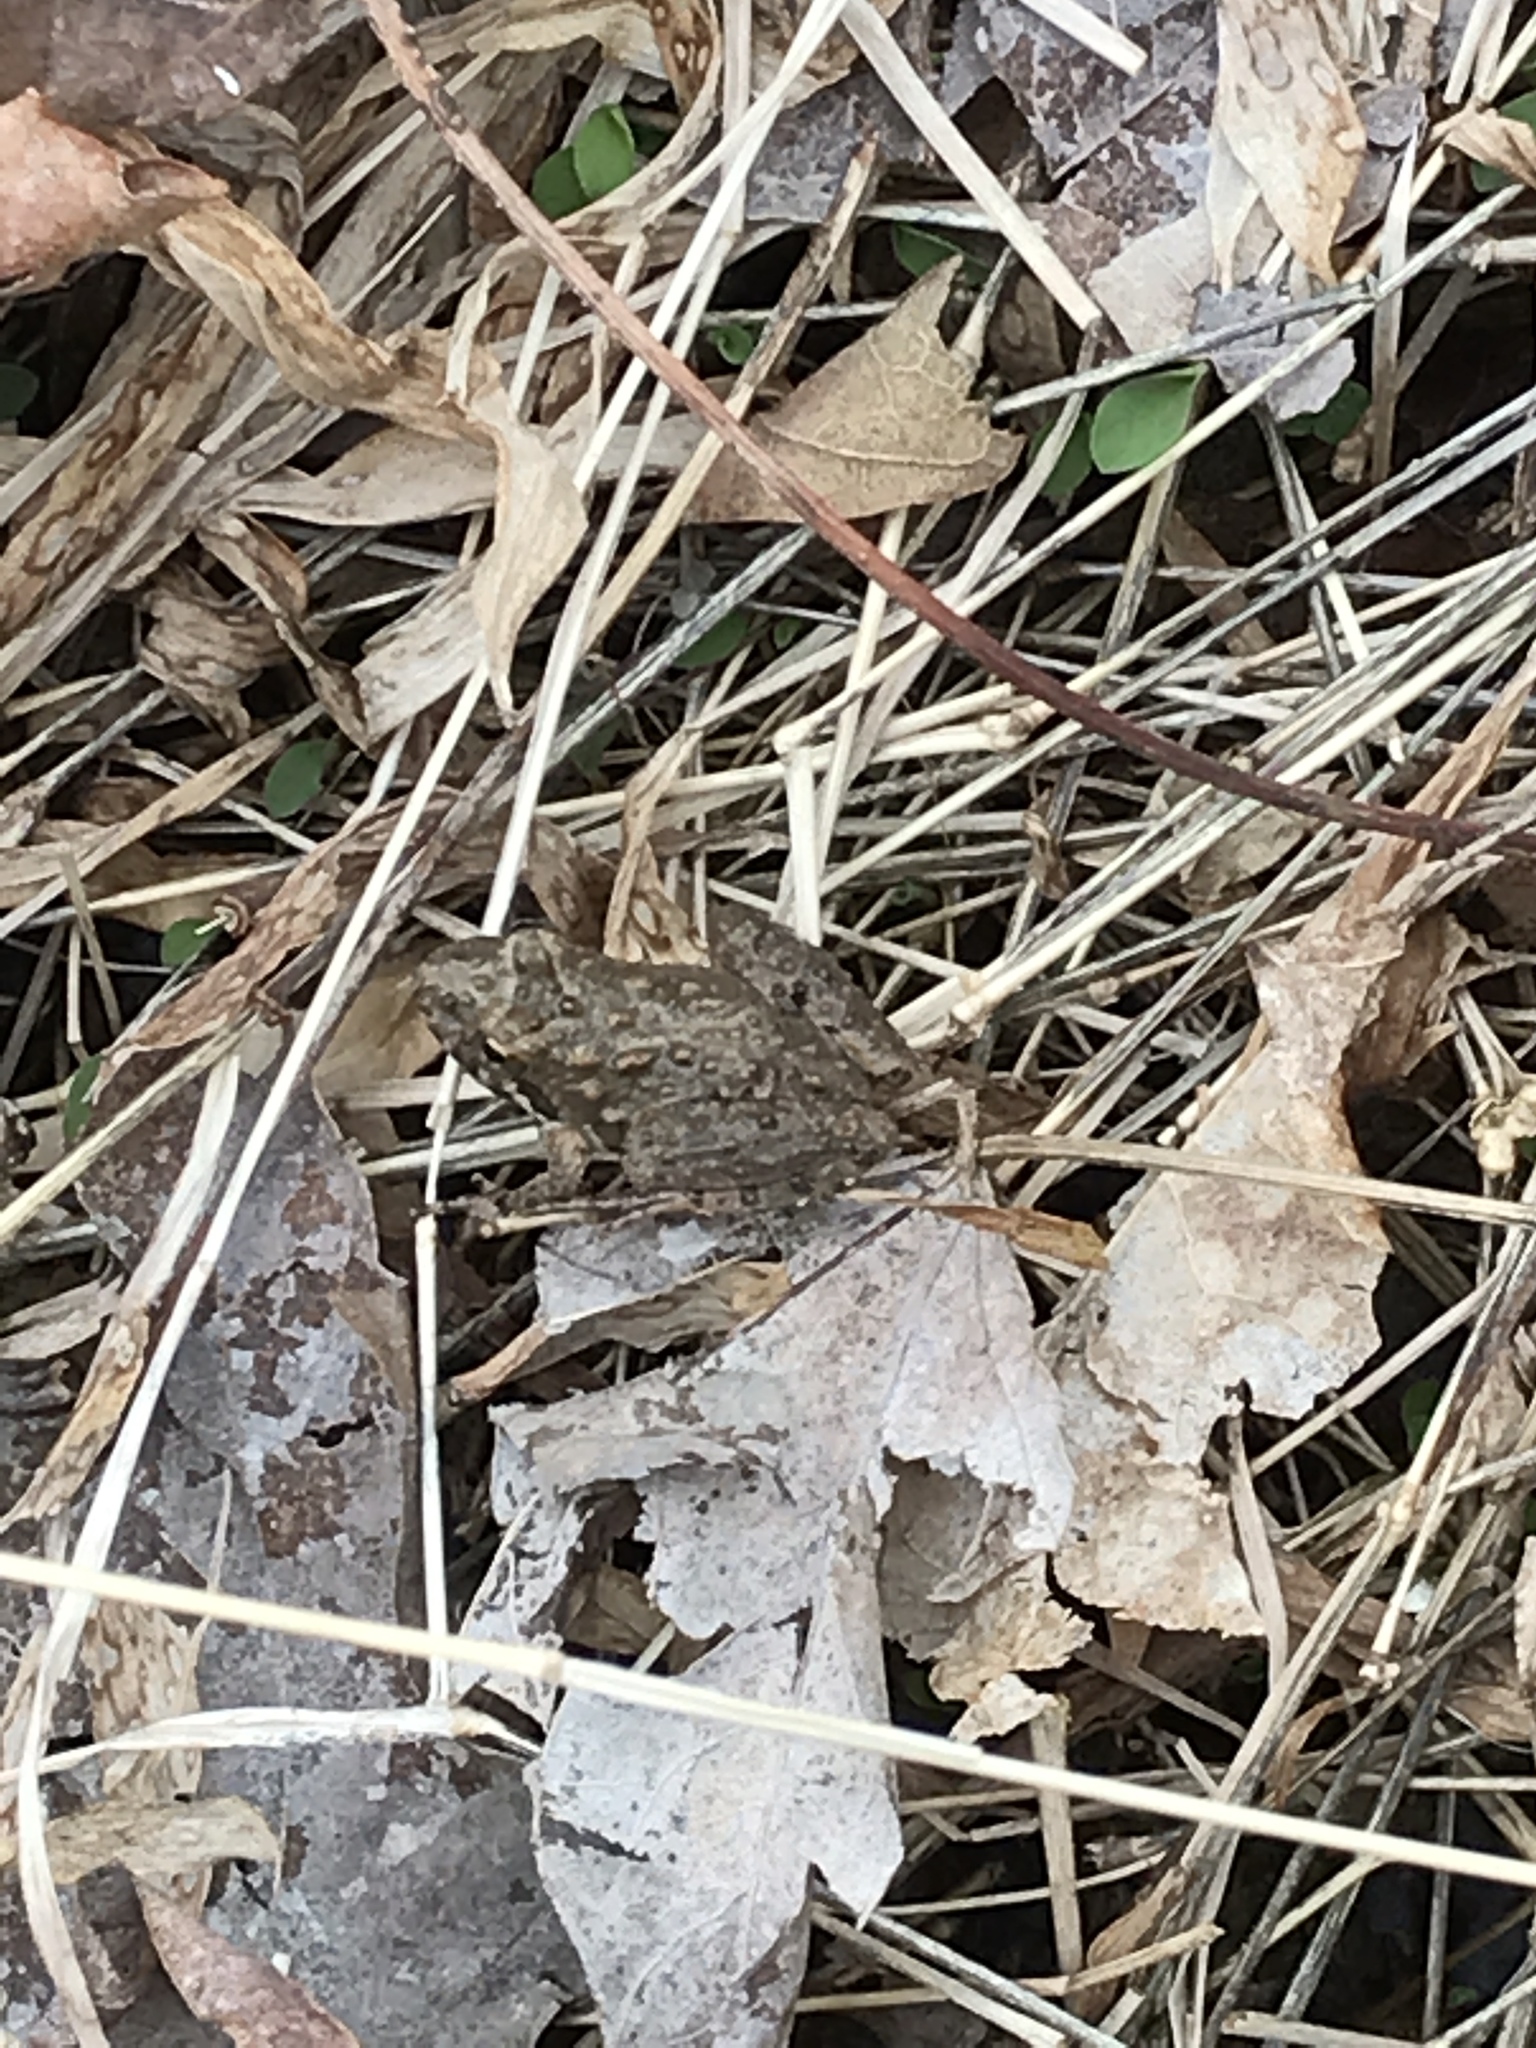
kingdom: Animalia
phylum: Chordata
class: Amphibia
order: Anura
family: Hylidae
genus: Acris
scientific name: Acris blanchardi
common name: Blanchard's cricket frog
